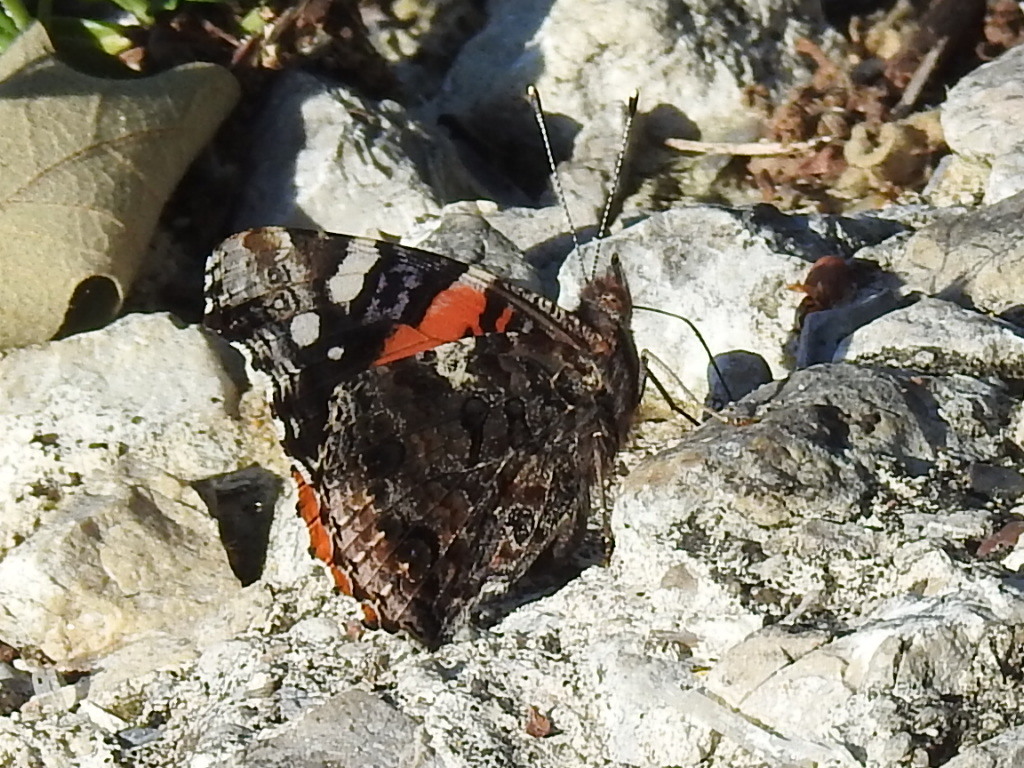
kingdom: Animalia
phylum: Arthropoda
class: Insecta
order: Lepidoptera
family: Nymphalidae
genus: Vanessa
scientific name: Vanessa atalanta
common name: Red admiral
